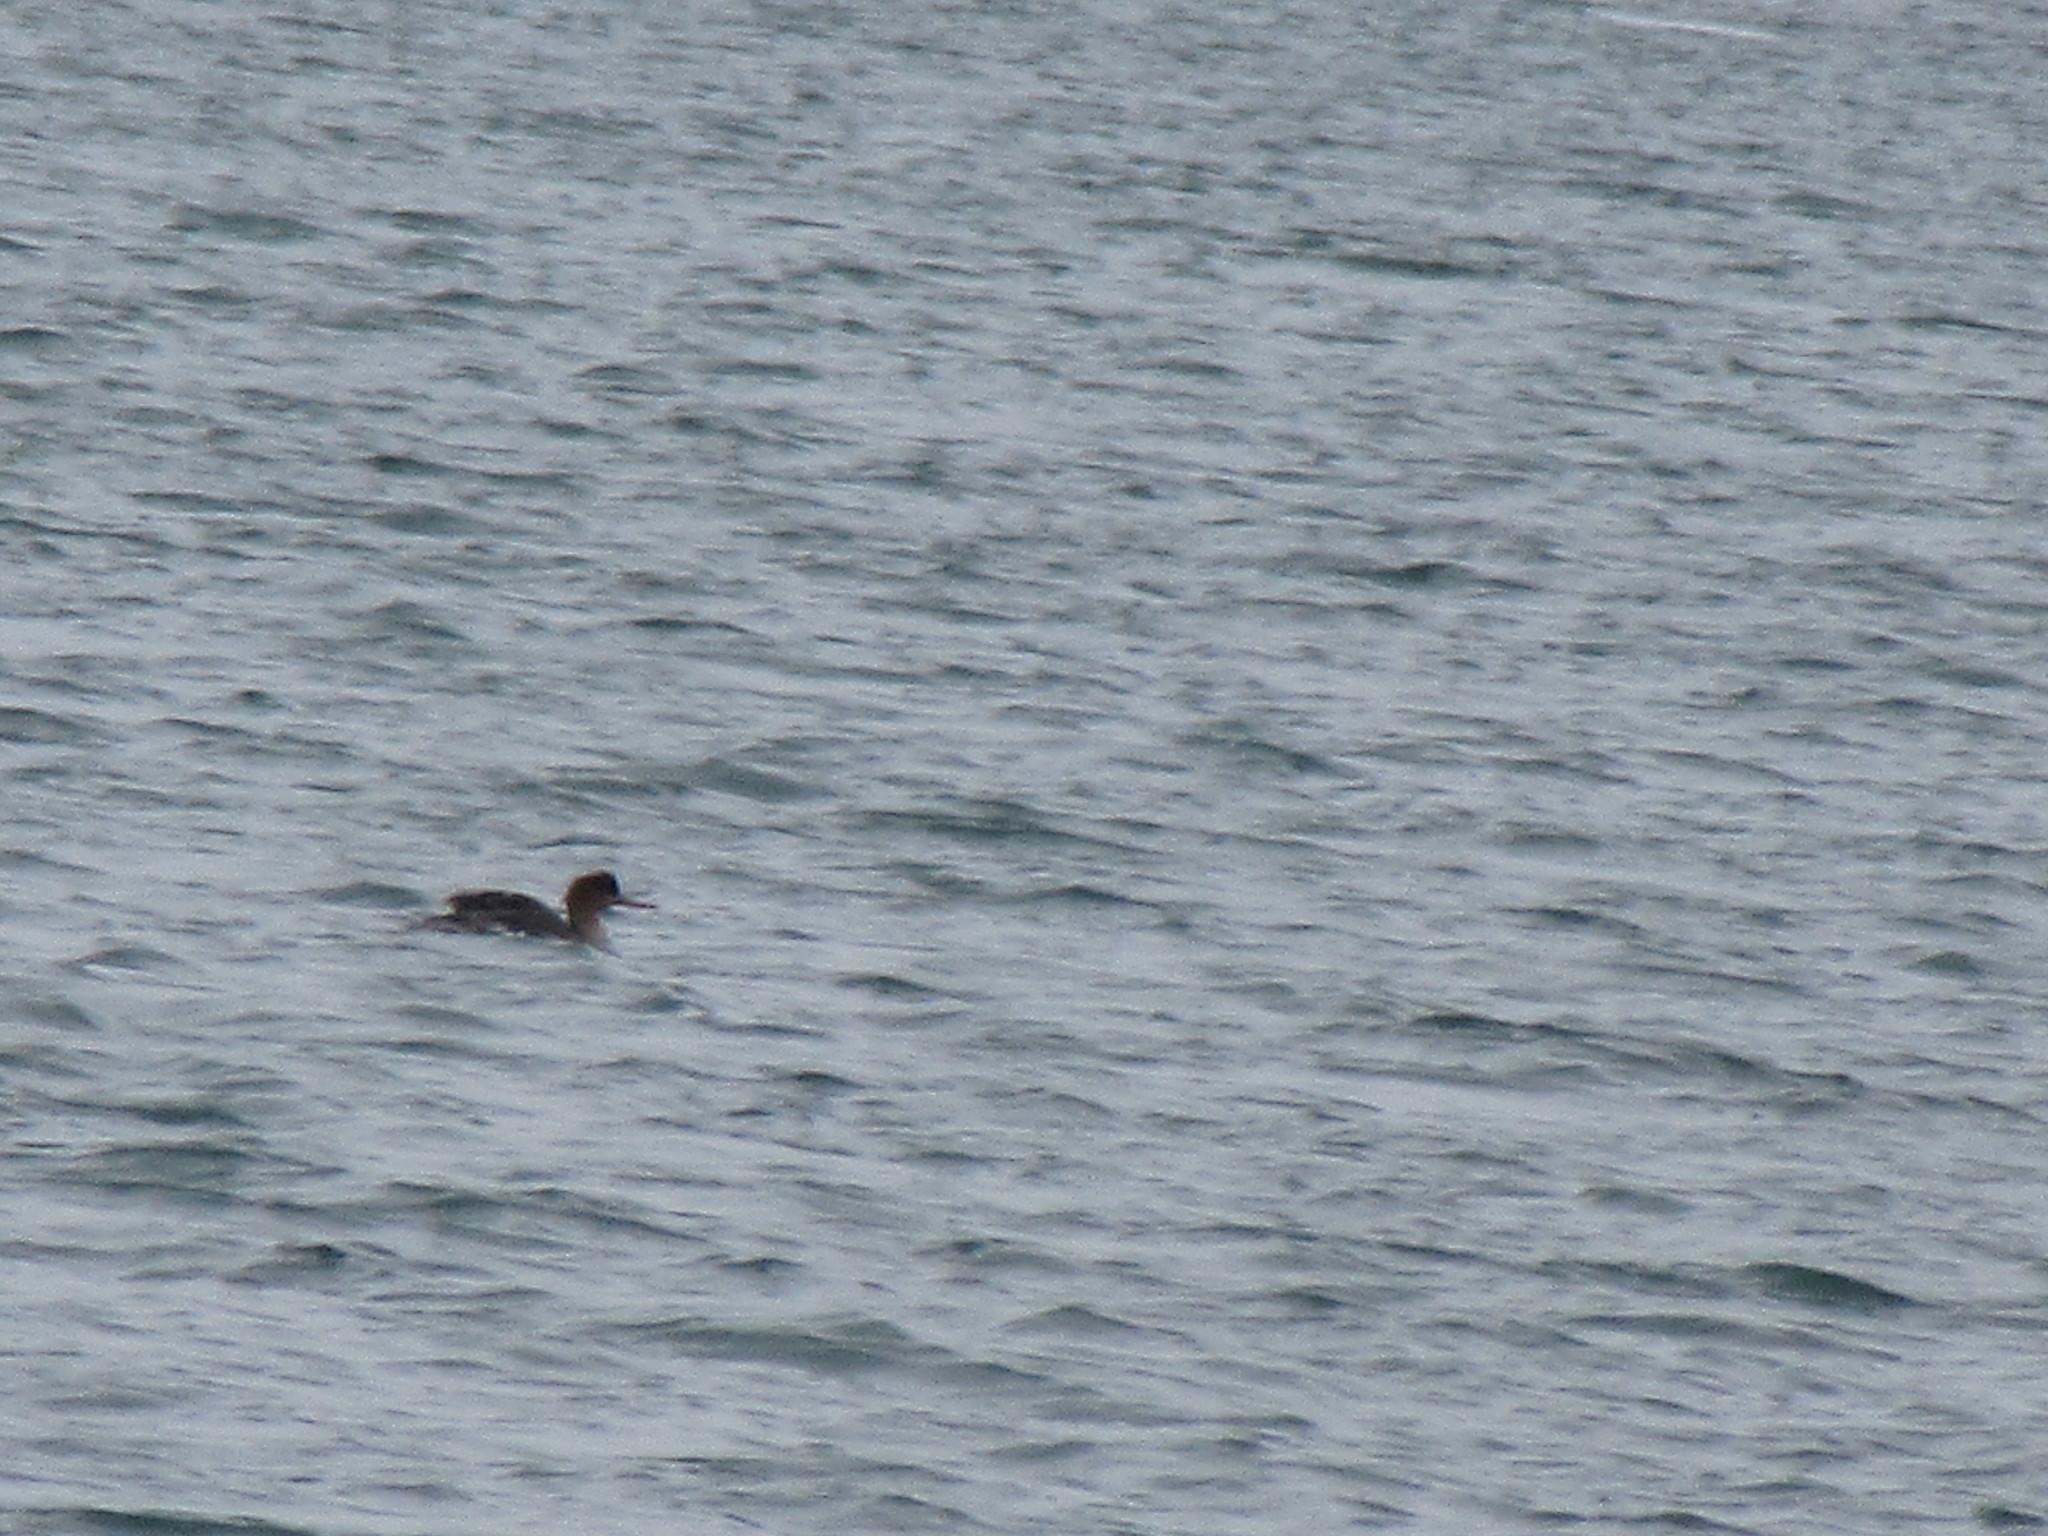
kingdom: Animalia
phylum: Chordata
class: Aves
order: Anseriformes
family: Anatidae
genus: Mergus
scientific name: Mergus serrator
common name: Red-breasted merganser
